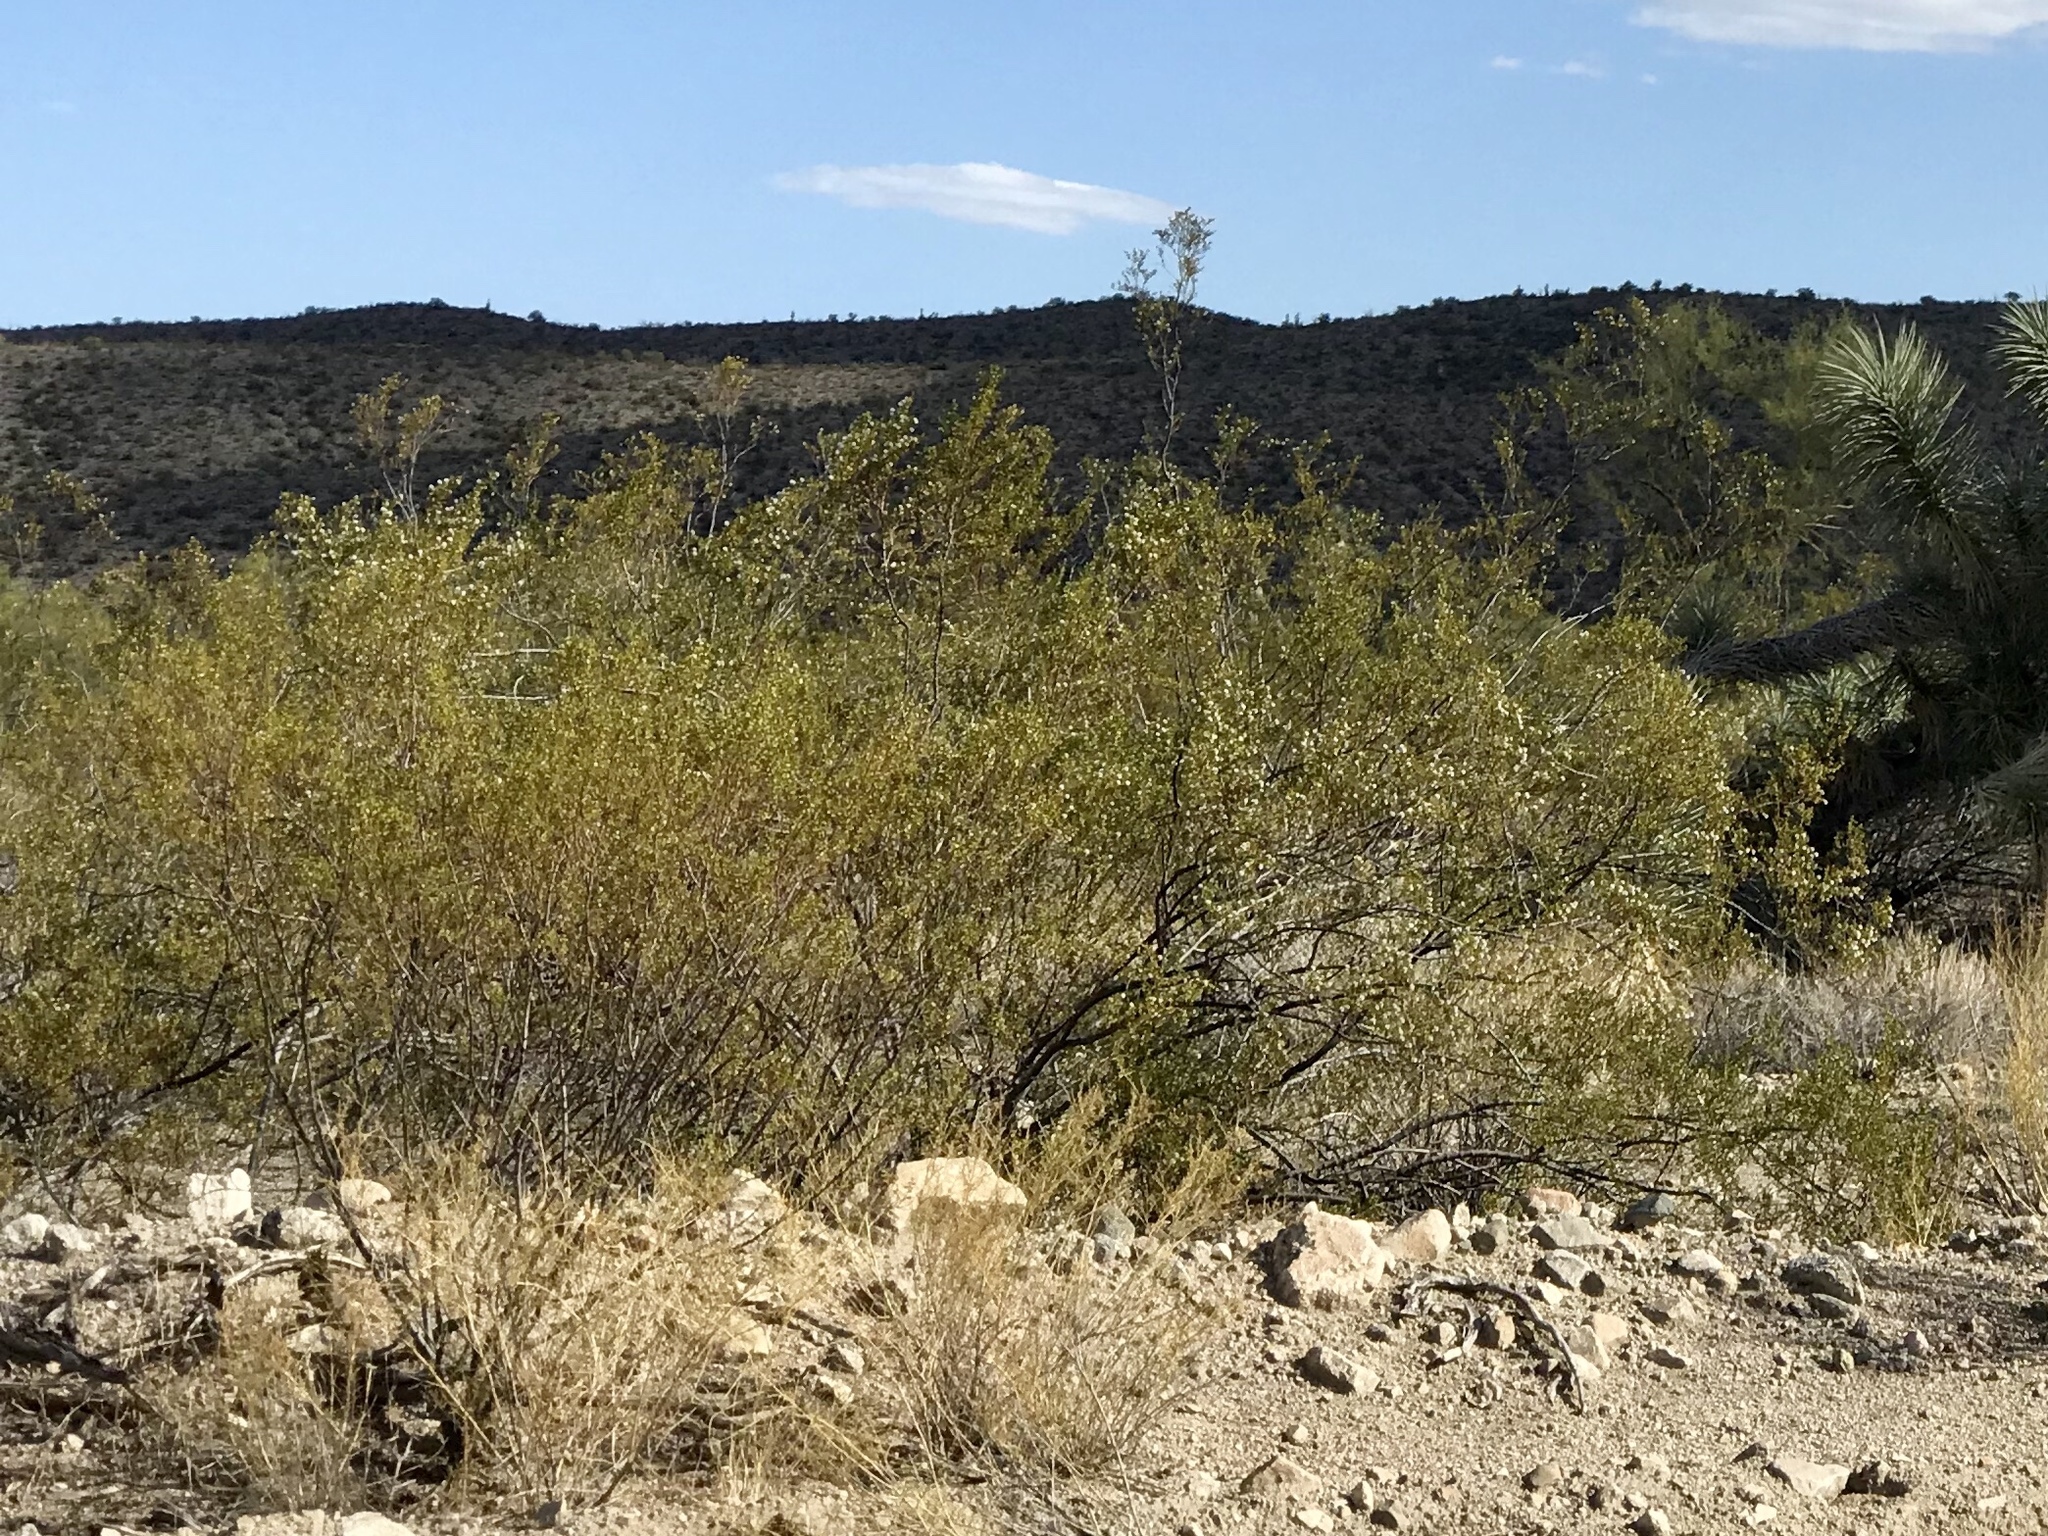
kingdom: Plantae
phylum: Tracheophyta
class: Magnoliopsida
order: Zygophyllales
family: Zygophyllaceae
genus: Larrea
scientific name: Larrea tridentata
